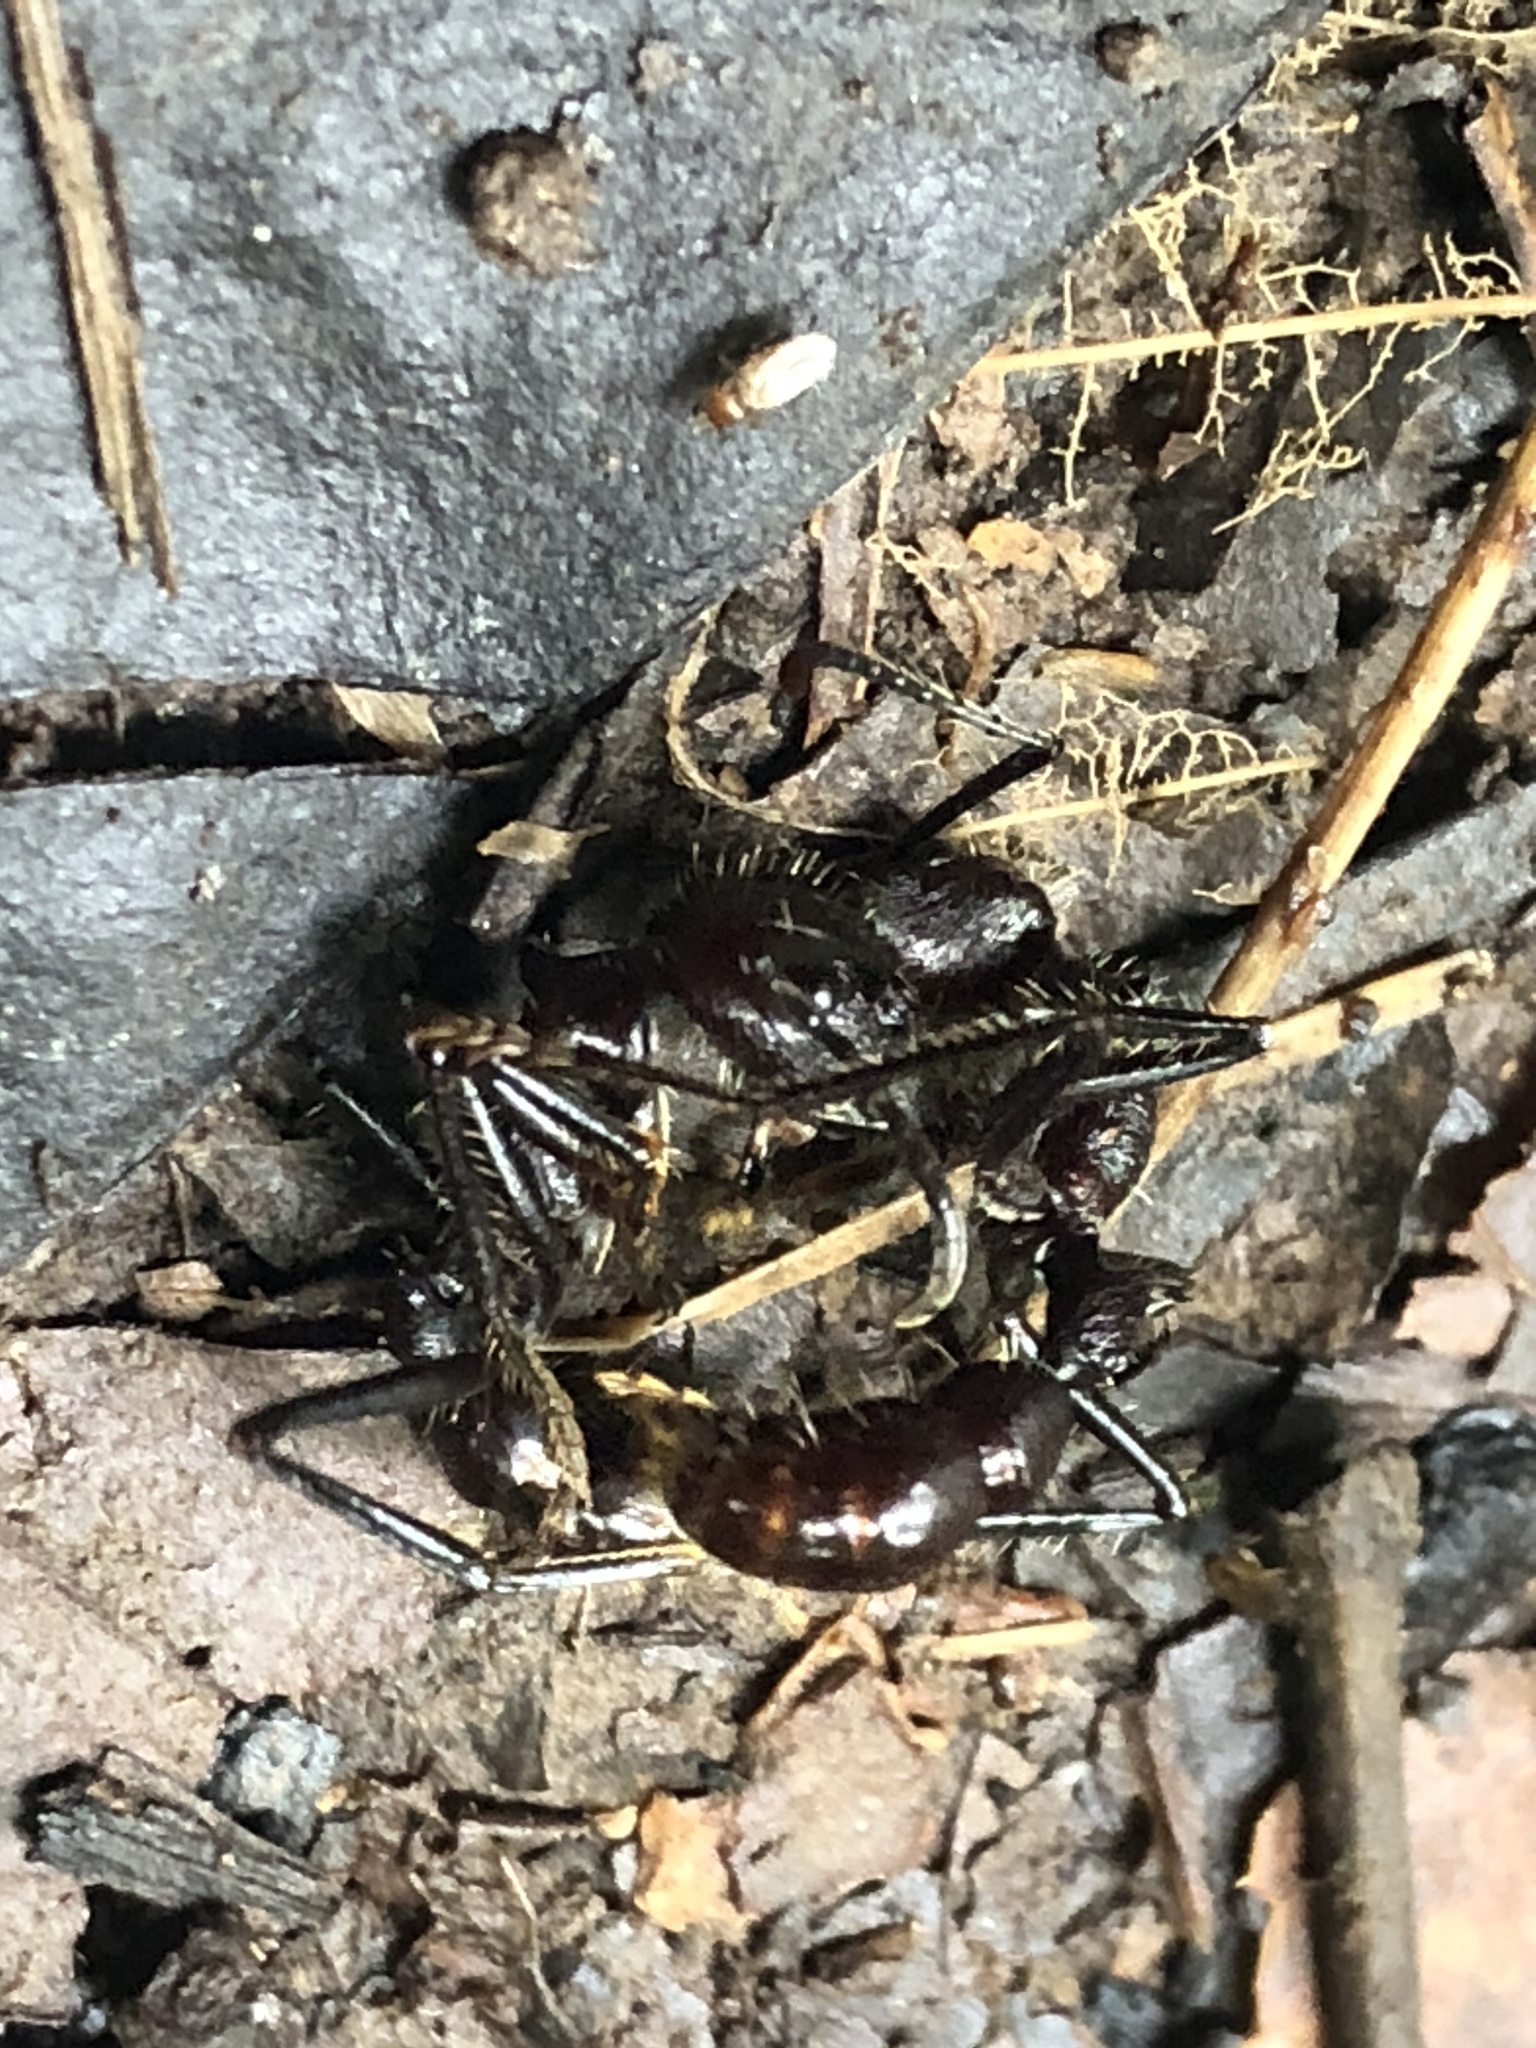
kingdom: Animalia
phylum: Arthropoda
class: Insecta
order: Hymenoptera
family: Formicidae
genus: Paraponera
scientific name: Paraponera clavata
